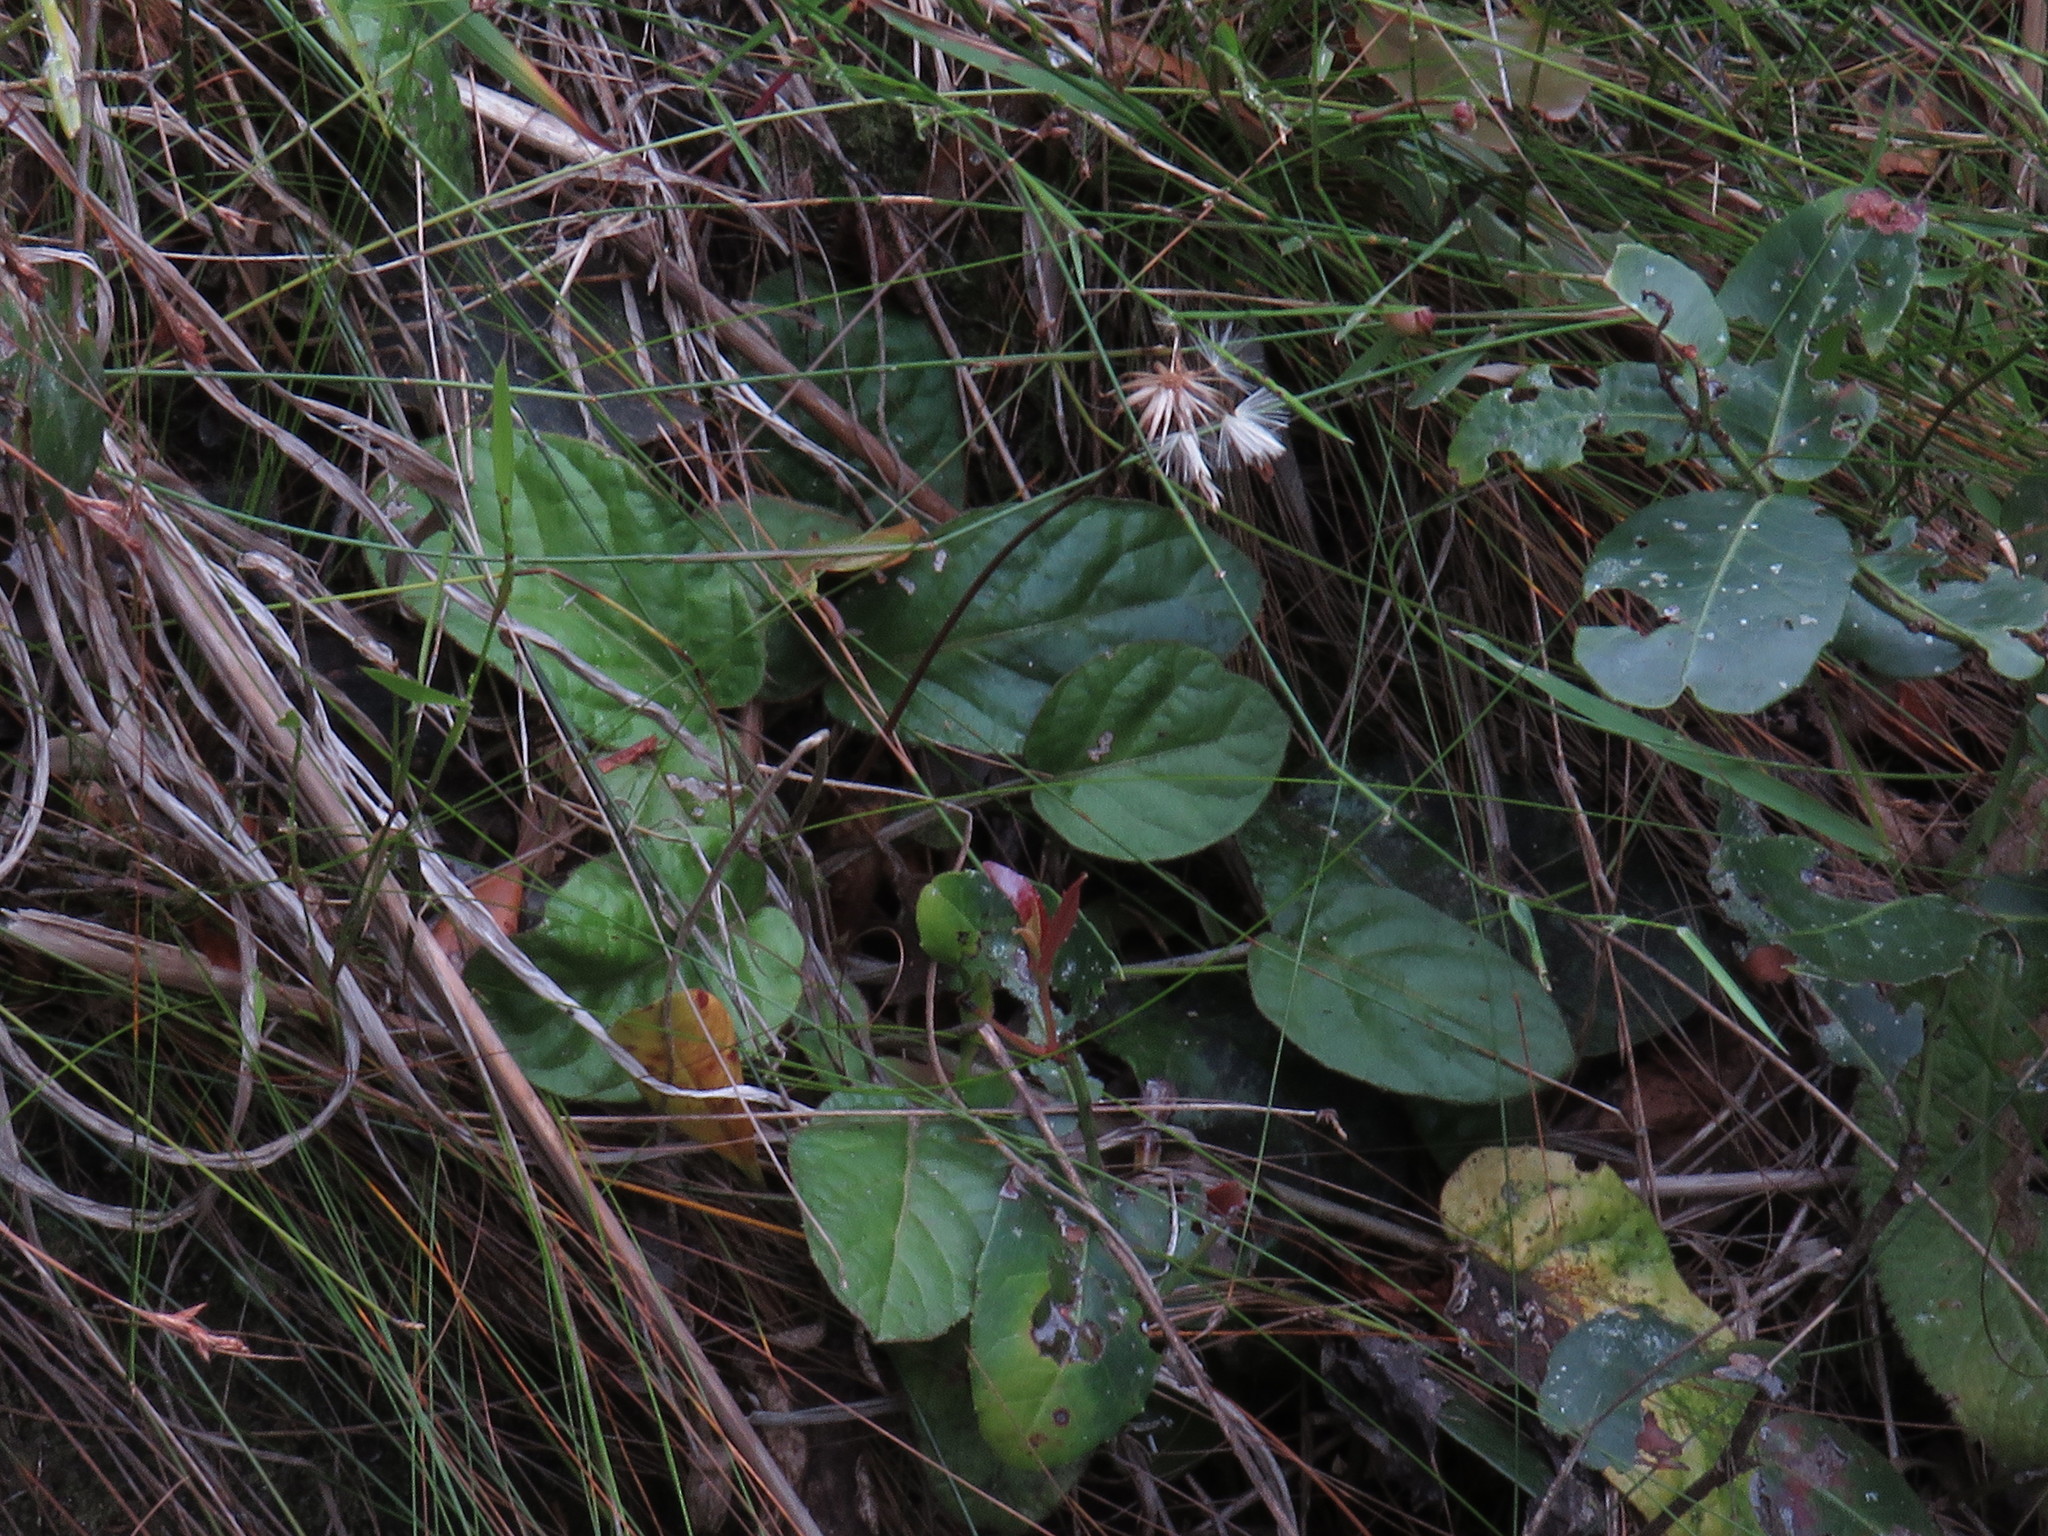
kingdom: Plantae
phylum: Tracheophyta
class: Magnoliopsida
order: Asterales
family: Asteraceae
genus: Piloselloides
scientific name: Piloselloides cordata
